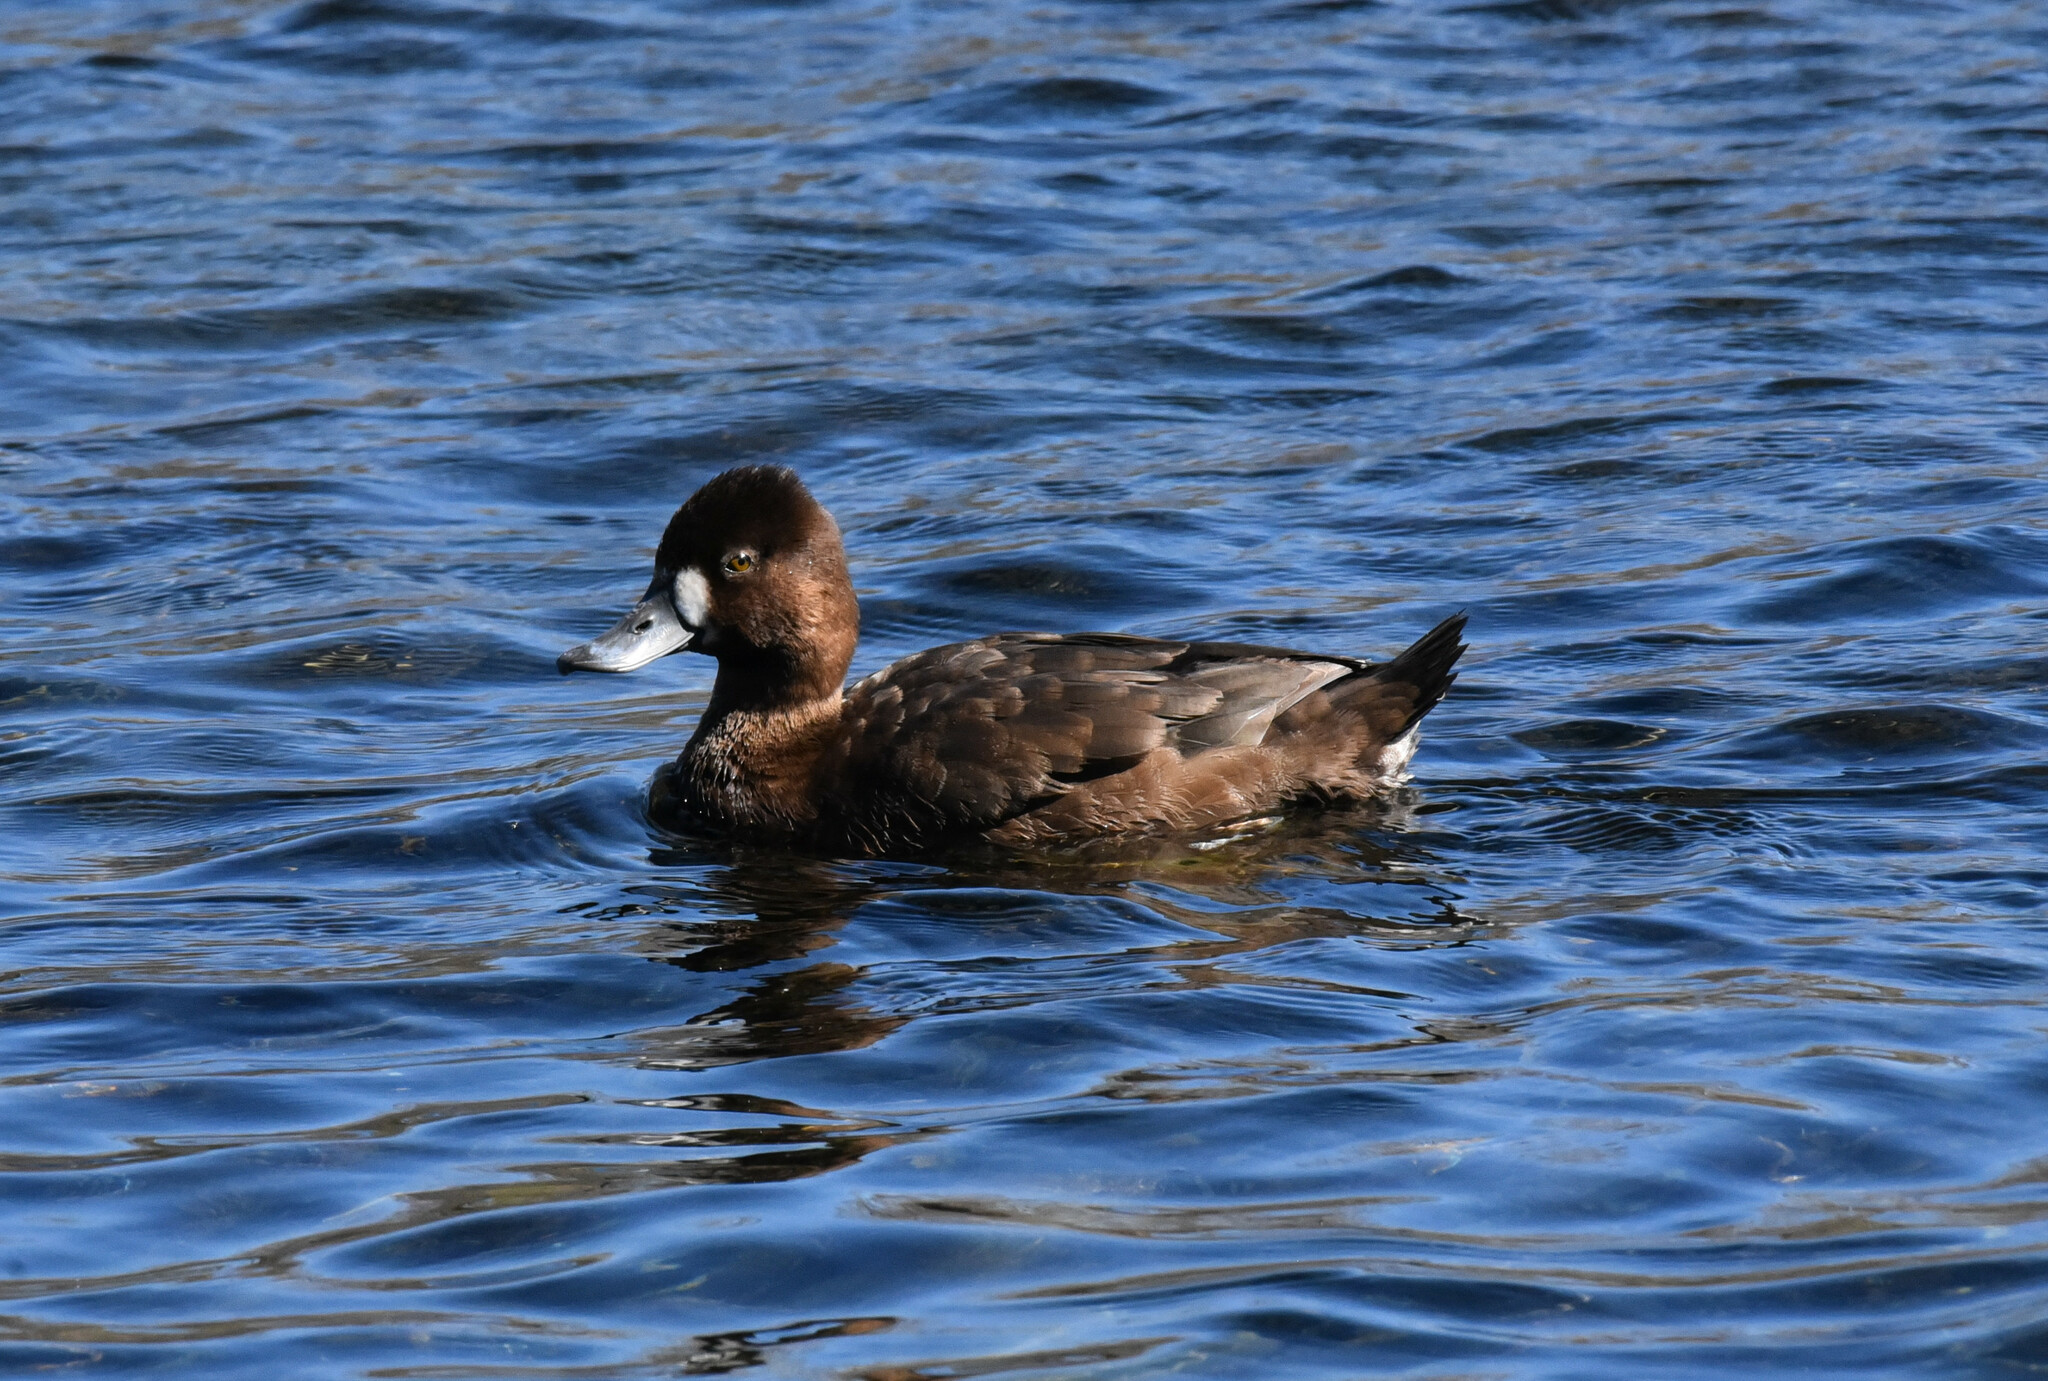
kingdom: Animalia
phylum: Chordata
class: Aves
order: Anseriformes
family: Anatidae
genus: Aythya
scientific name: Aythya affinis
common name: Lesser scaup
